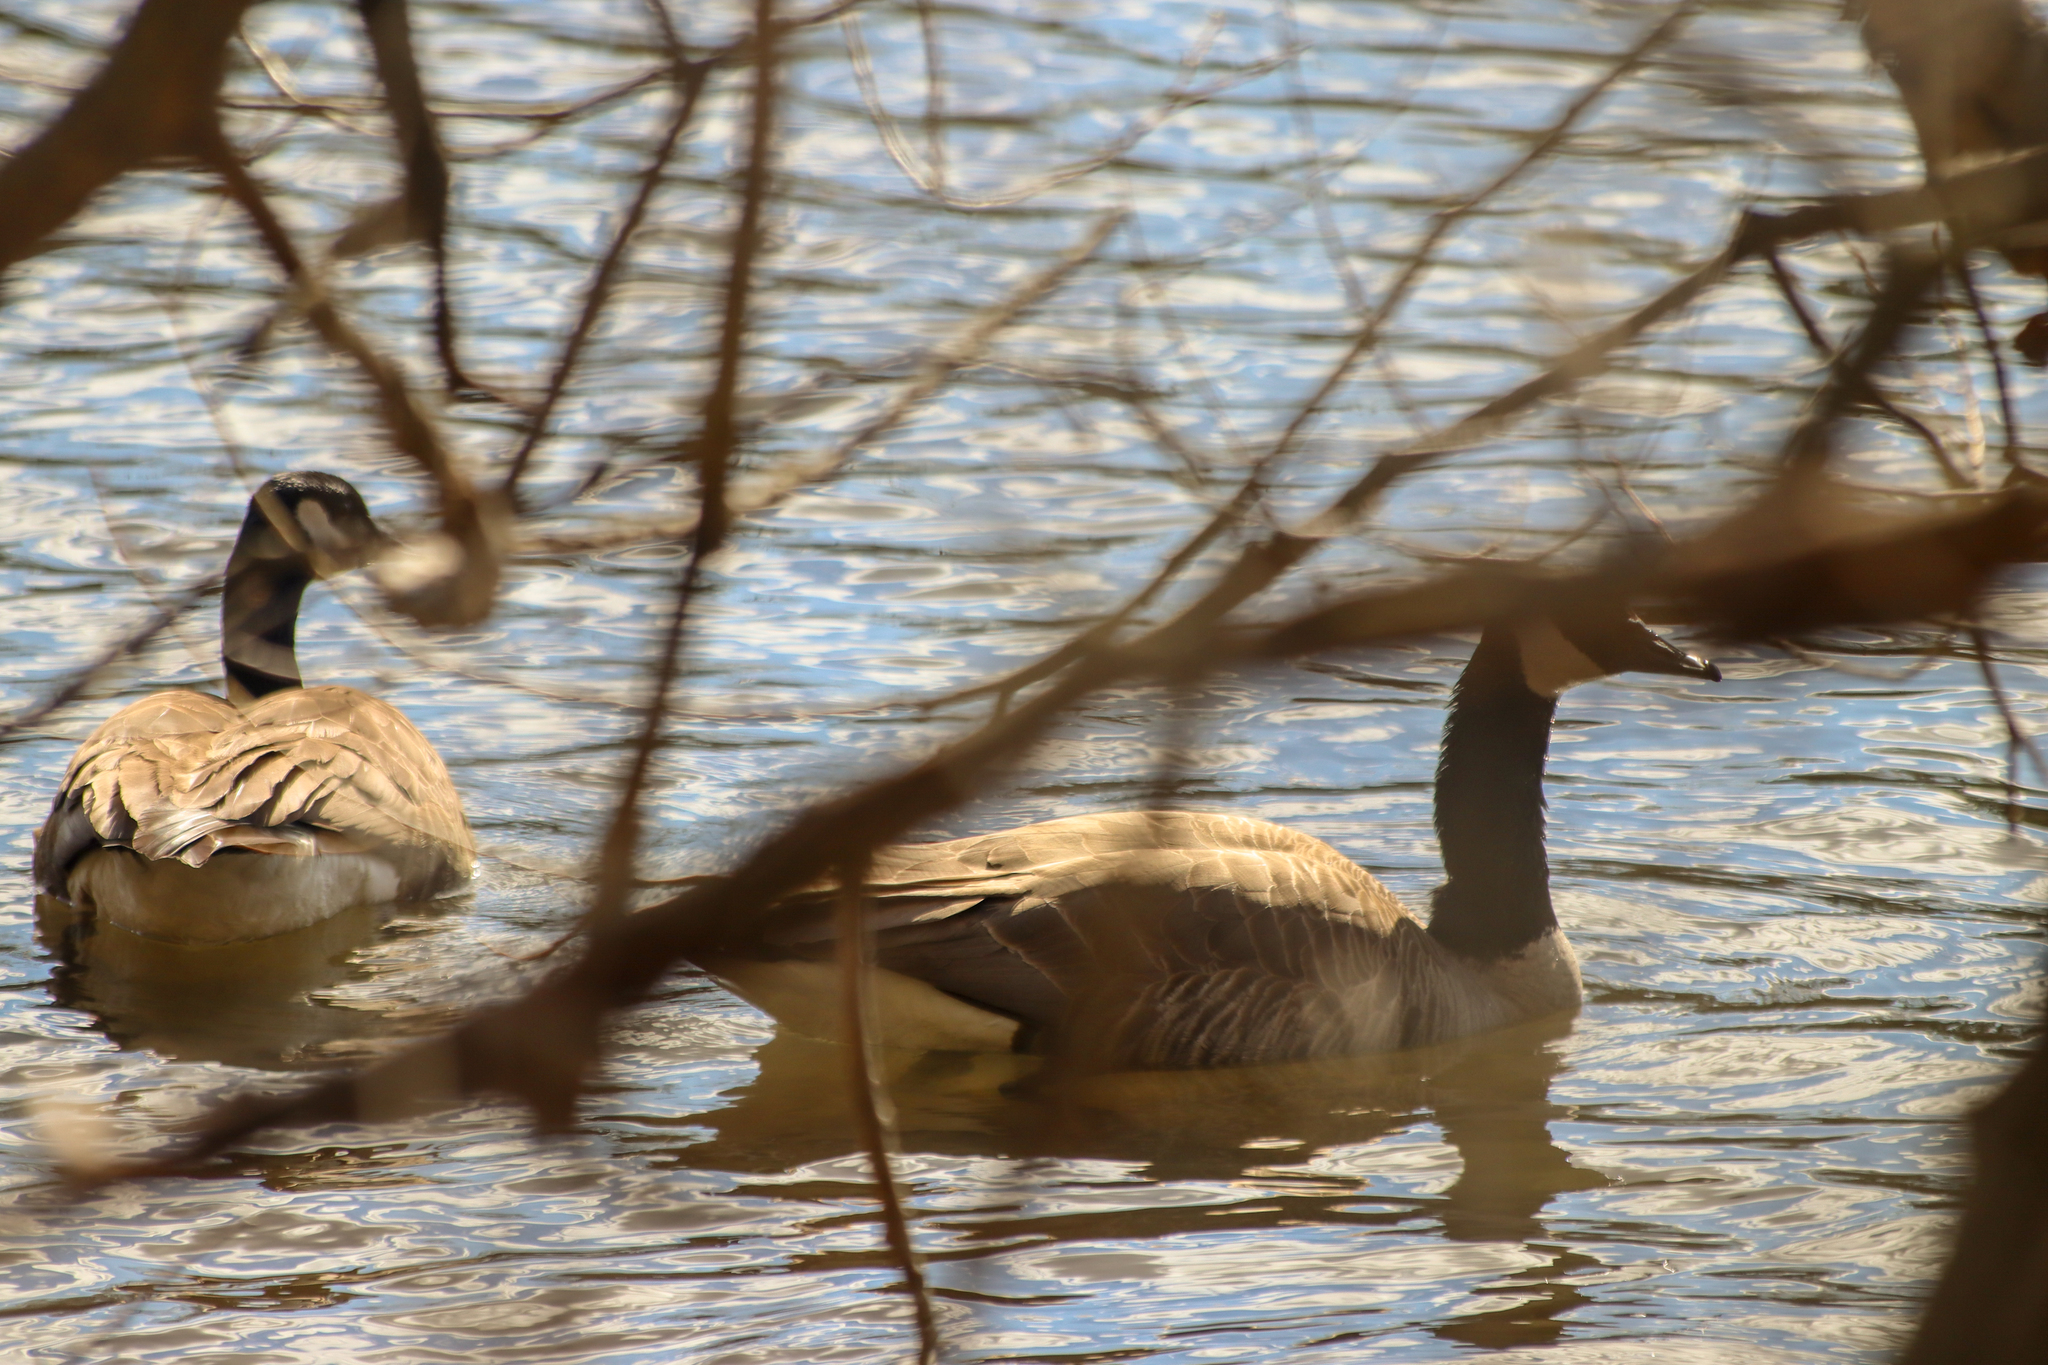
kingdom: Animalia
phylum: Chordata
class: Aves
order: Anseriformes
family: Anatidae
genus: Branta
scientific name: Branta canadensis
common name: Canada goose
